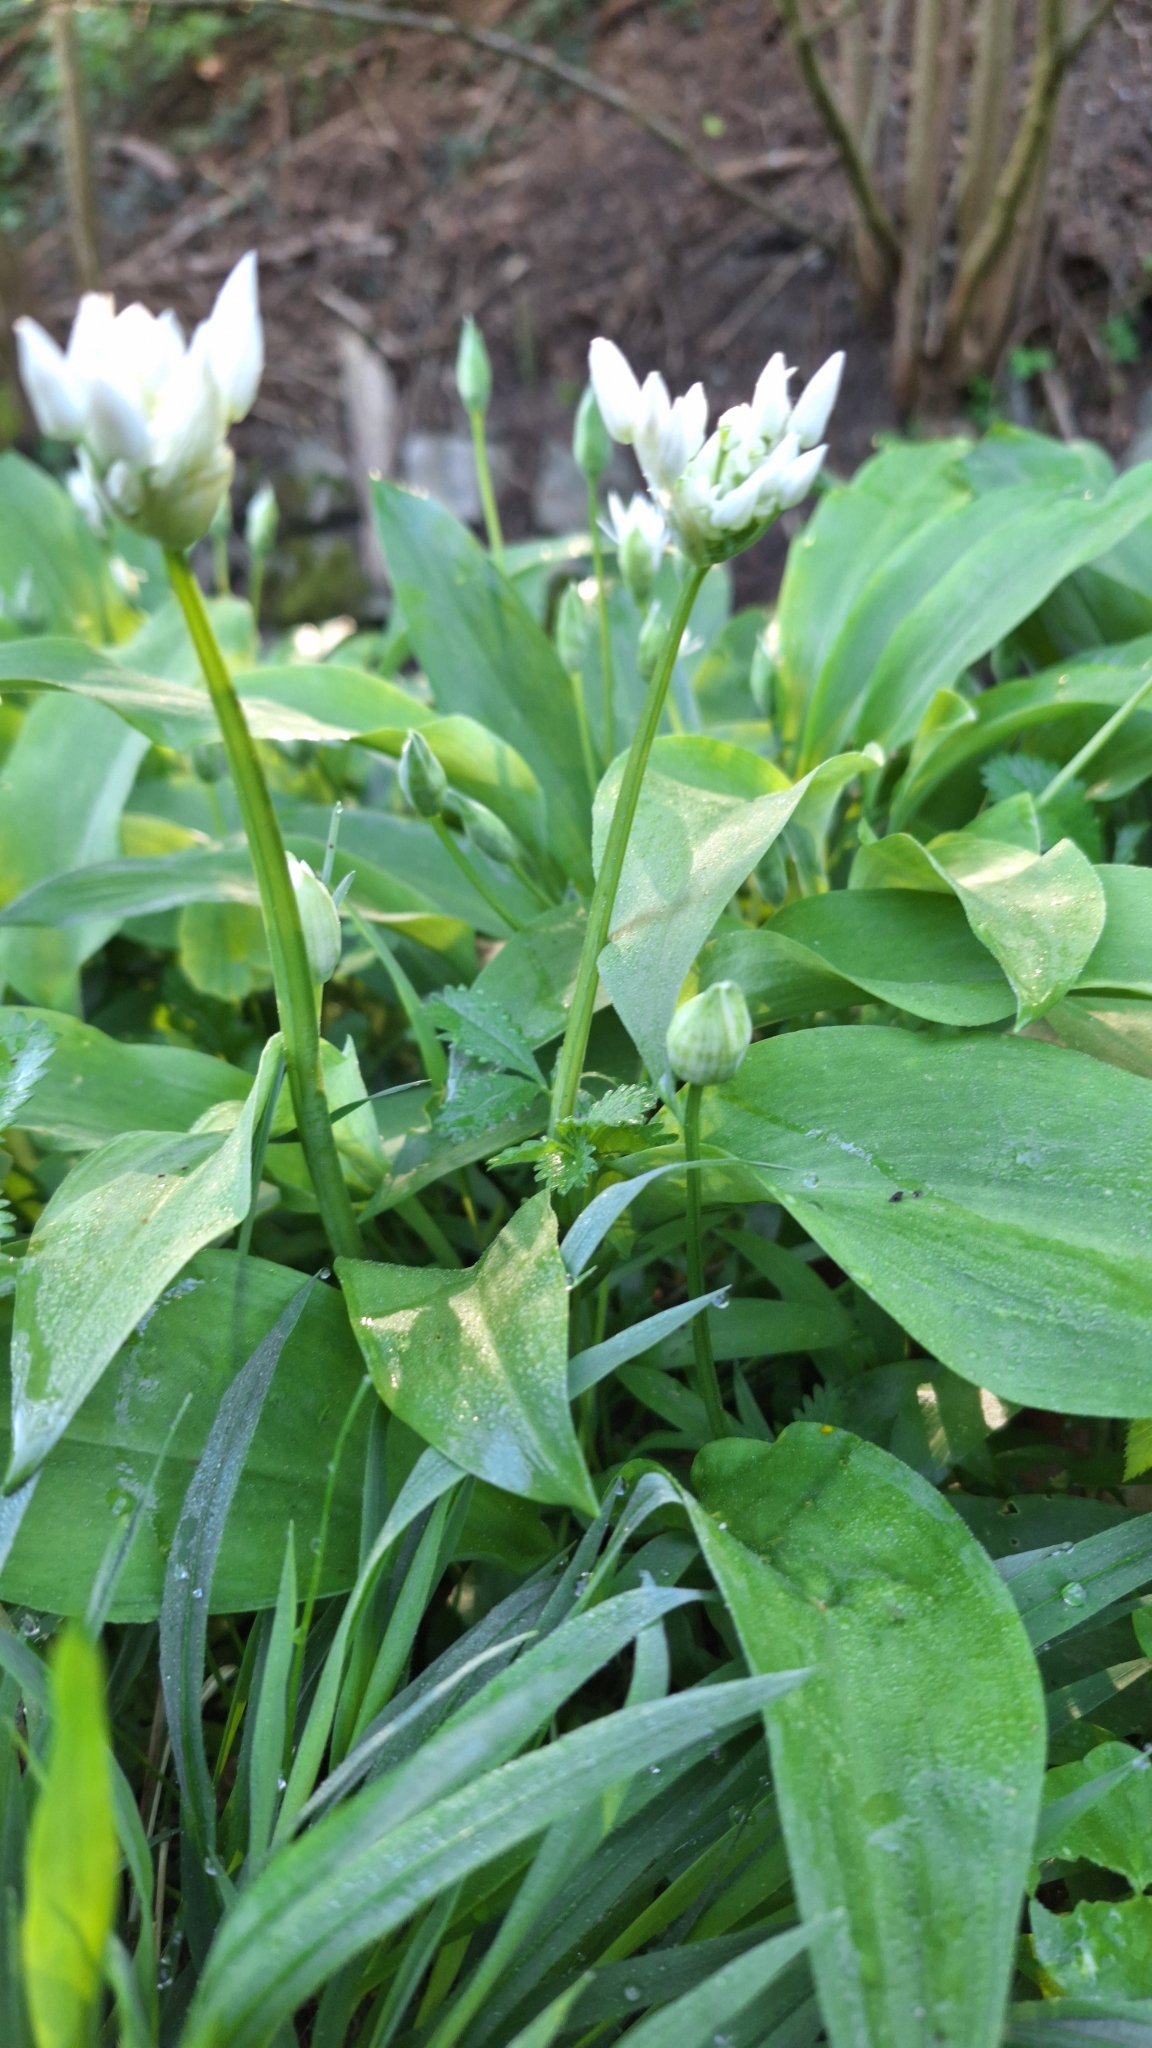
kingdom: Plantae
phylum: Tracheophyta
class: Liliopsida
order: Asparagales
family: Amaryllidaceae
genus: Allium
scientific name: Allium ursinum
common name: Ramsons
